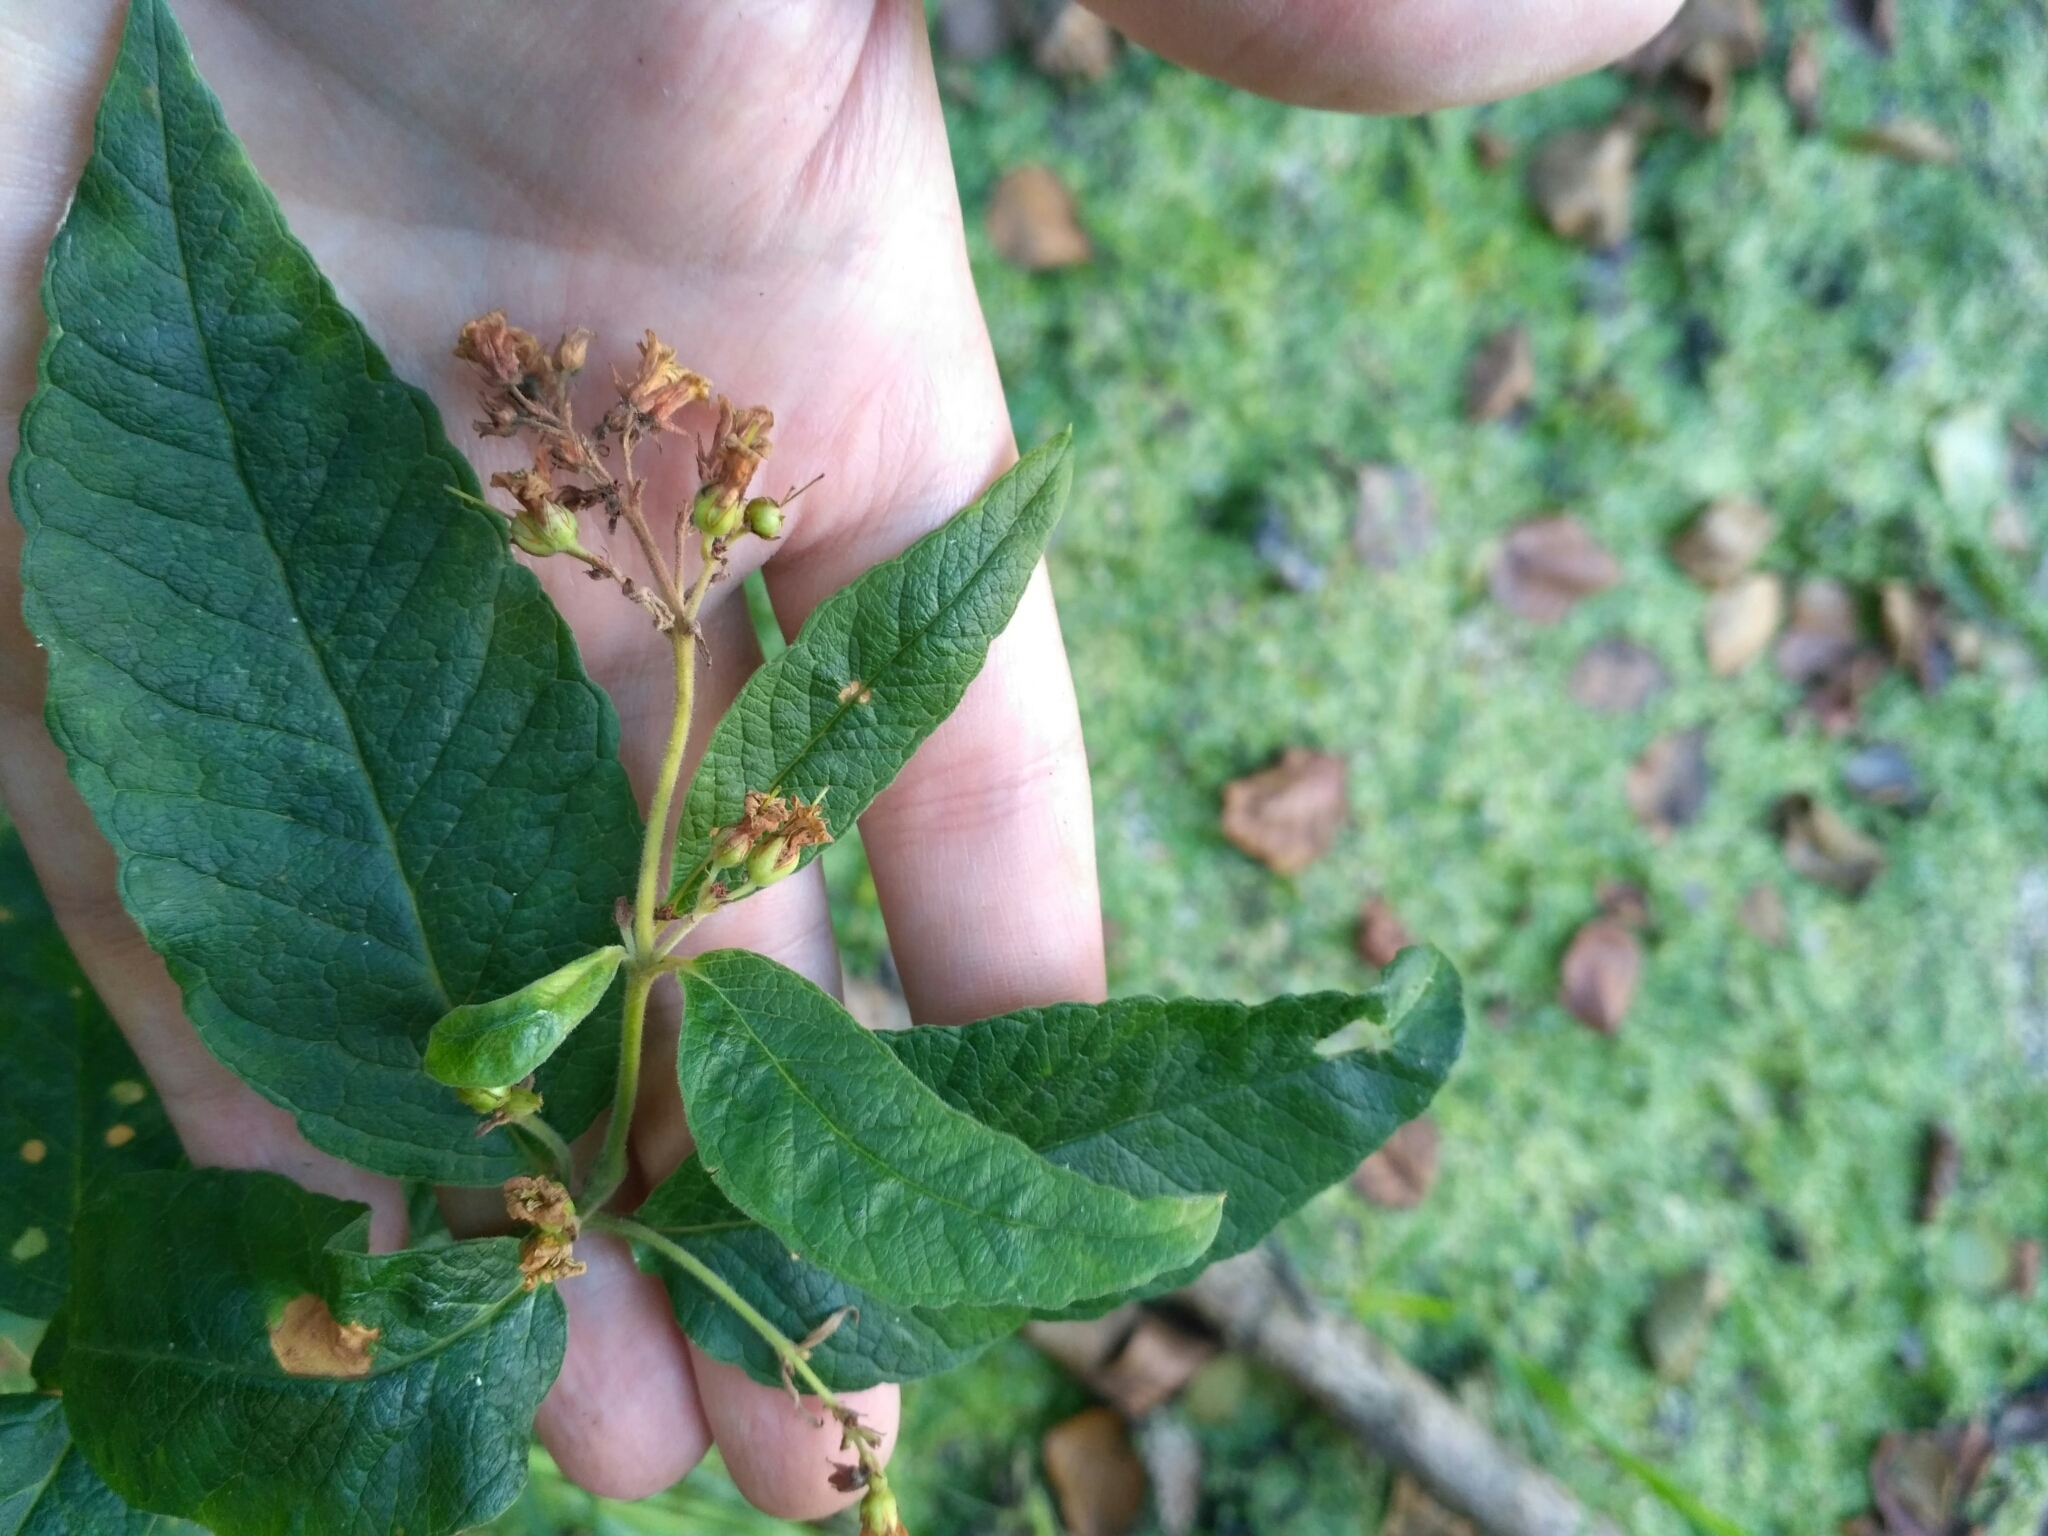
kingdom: Plantae
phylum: Tracheophyta
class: Magnoliopsida
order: Ericales
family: Primulaceae
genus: Lysimachia
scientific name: Lysimachia vulgaris
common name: Yellow loosestrife
